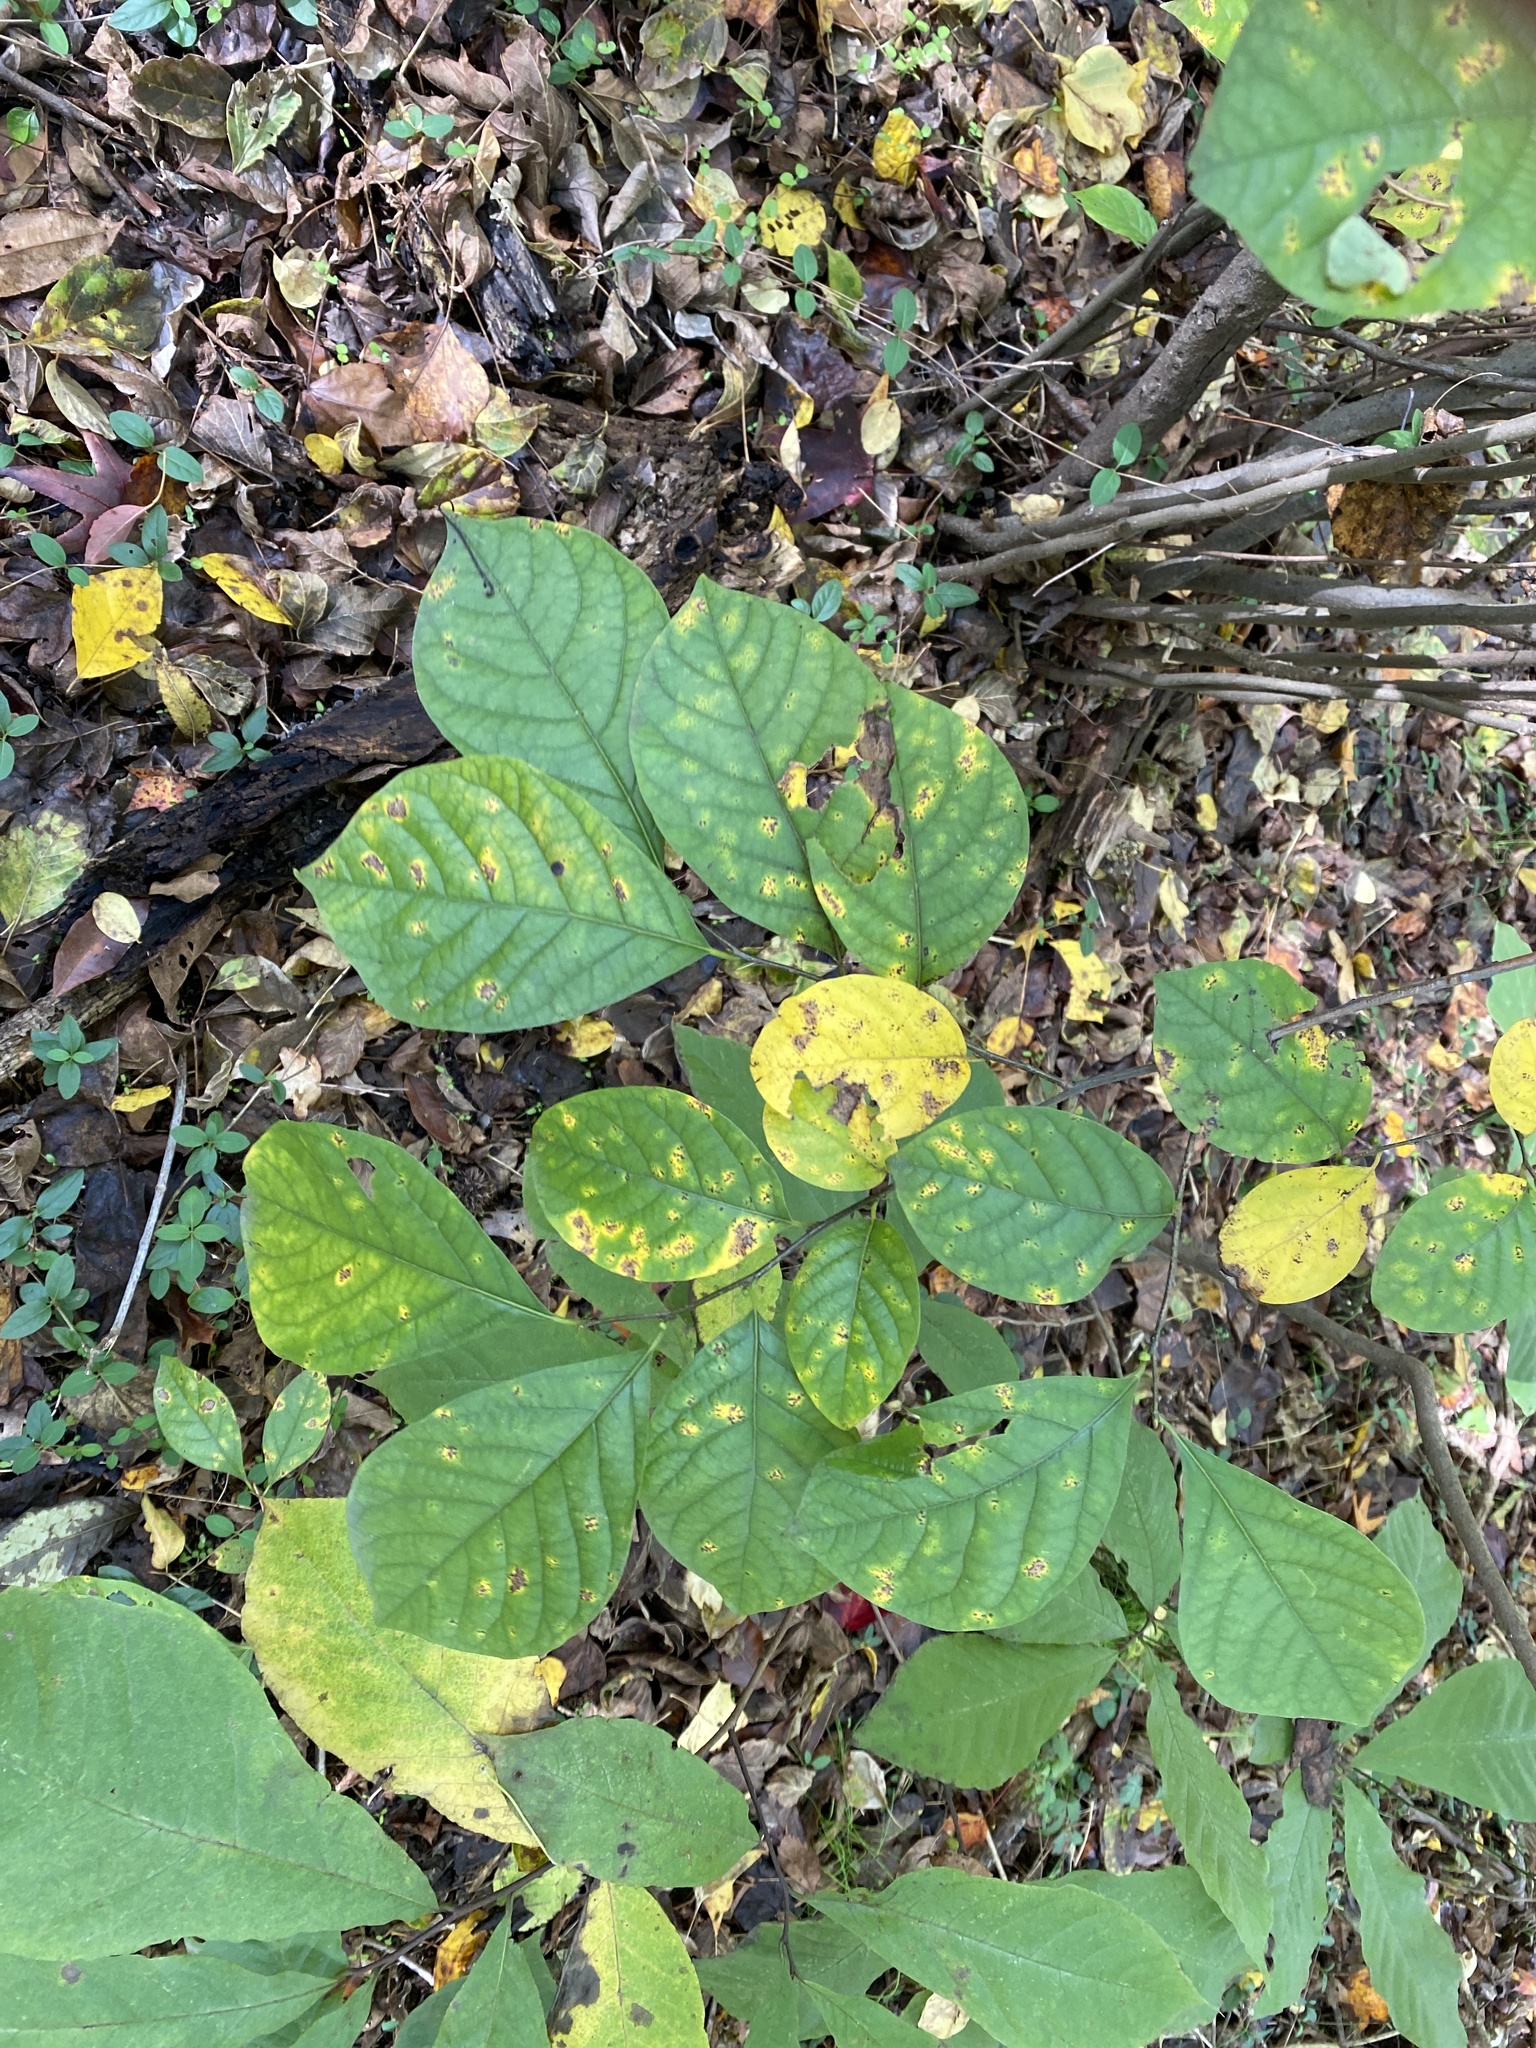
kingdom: Plantae
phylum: Tracheophyta
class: Magnoliopsida
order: Laurales
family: Lauraceae
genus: Lindera
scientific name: Lindera benzoin
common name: Spicebush
